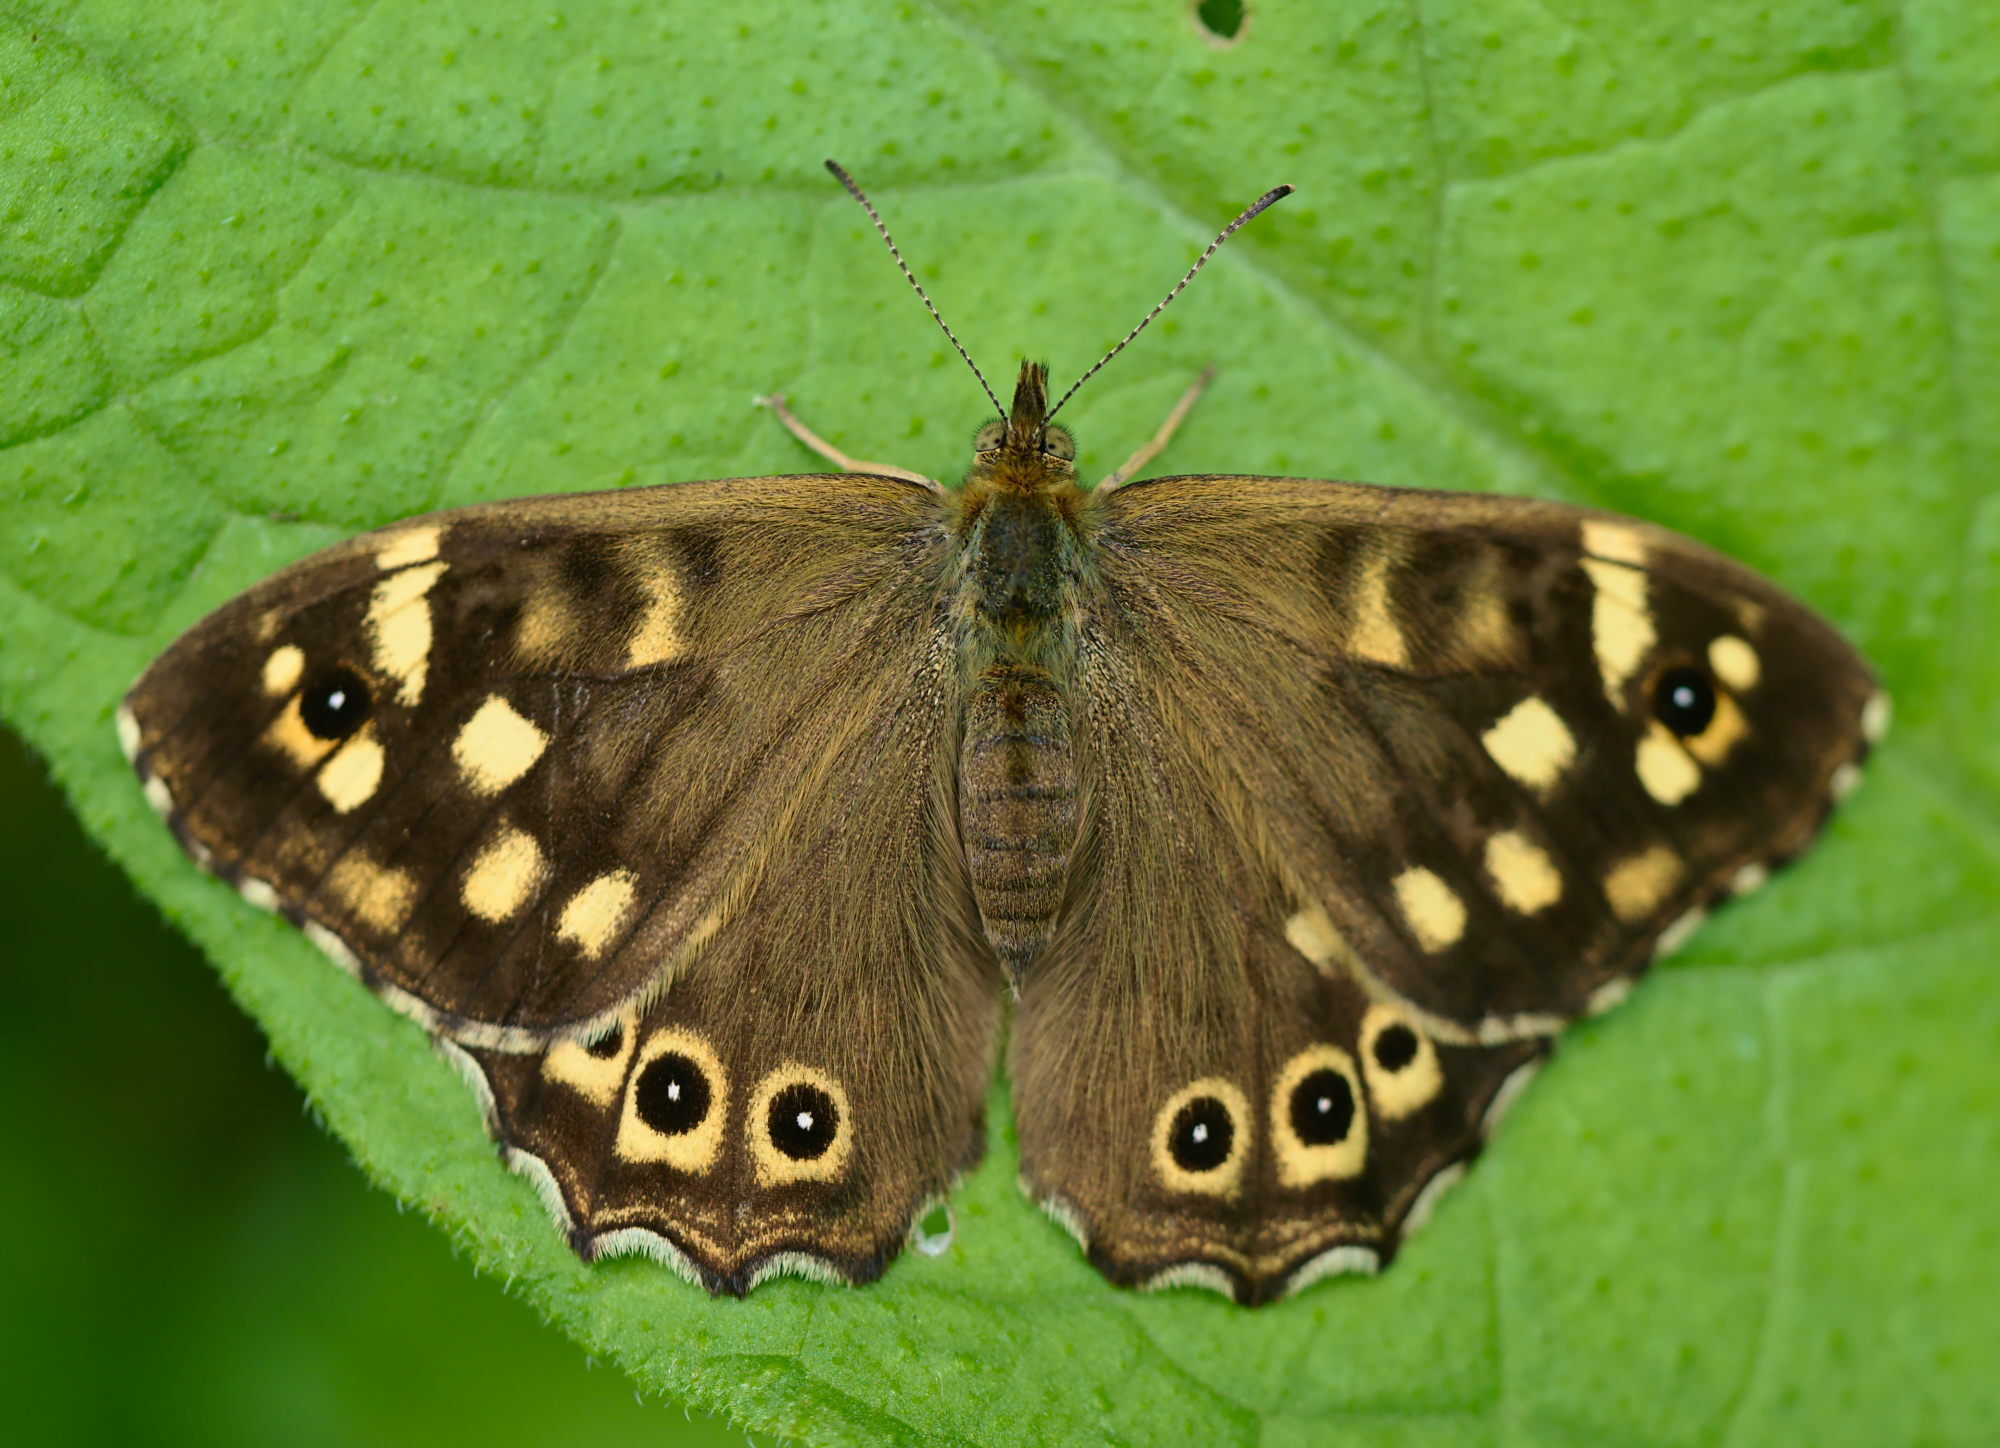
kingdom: Animalia
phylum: Arthropoda
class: Insecta
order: Lepidoptera
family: Nymphalidae
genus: Pararge
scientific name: Pararge aegeria
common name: Speckled wood
